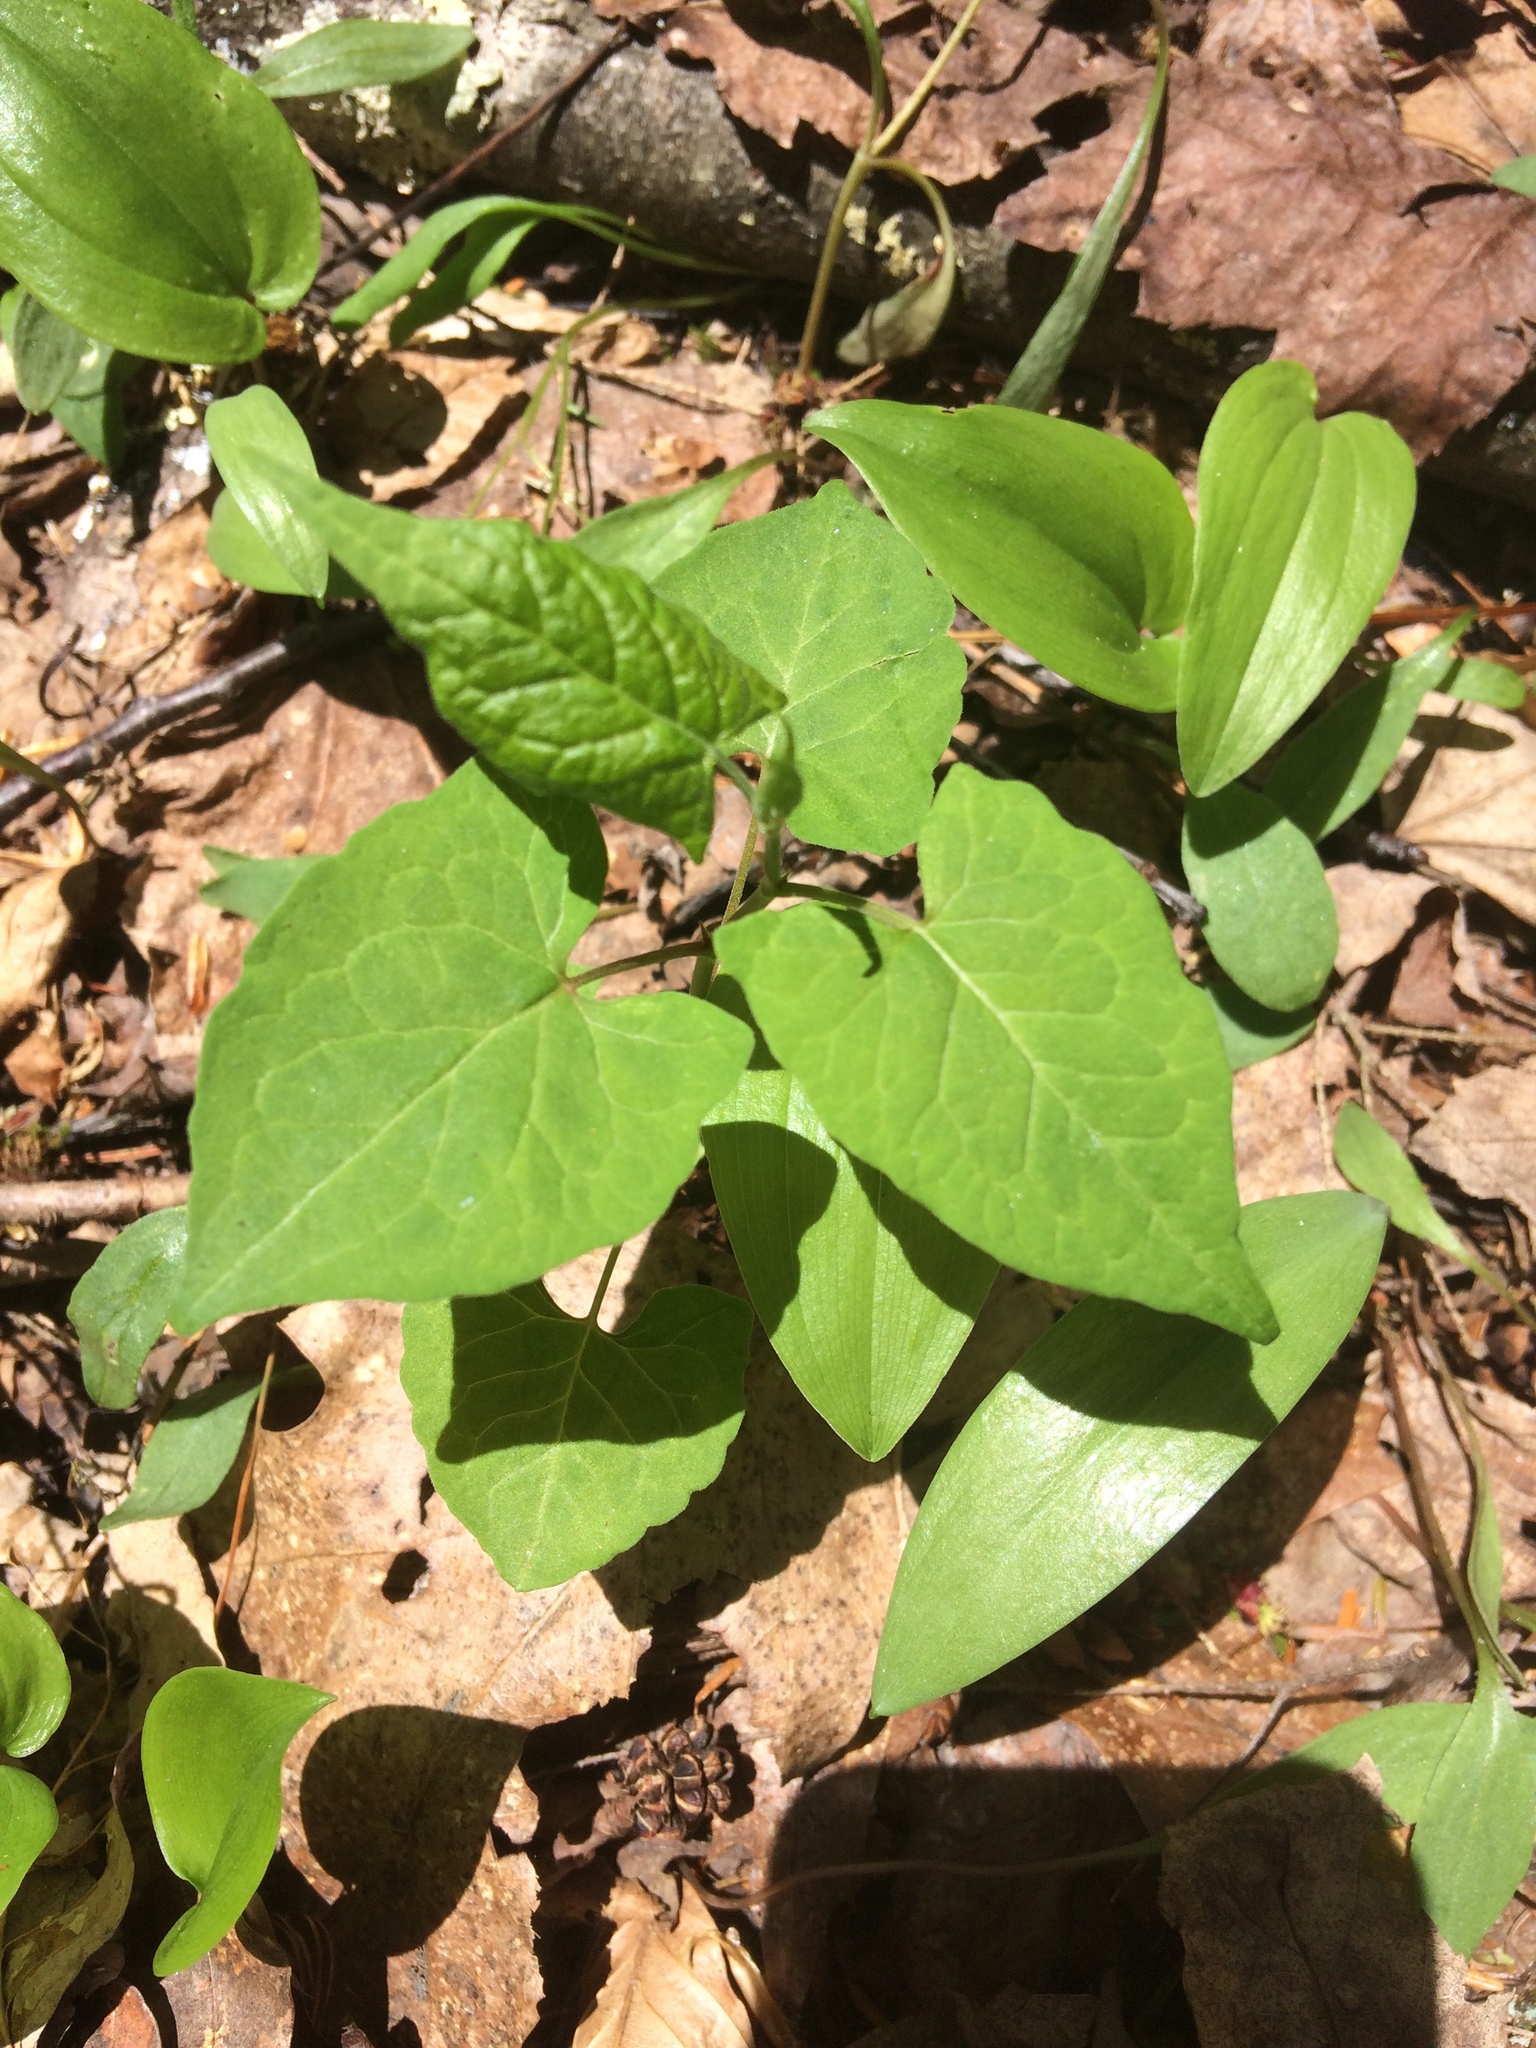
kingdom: Plantae
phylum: Tracheophyta
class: Magnoliopsida
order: Caryophyllales
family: Polygonaceae
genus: Parogonum
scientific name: Parogonum ciliinode
